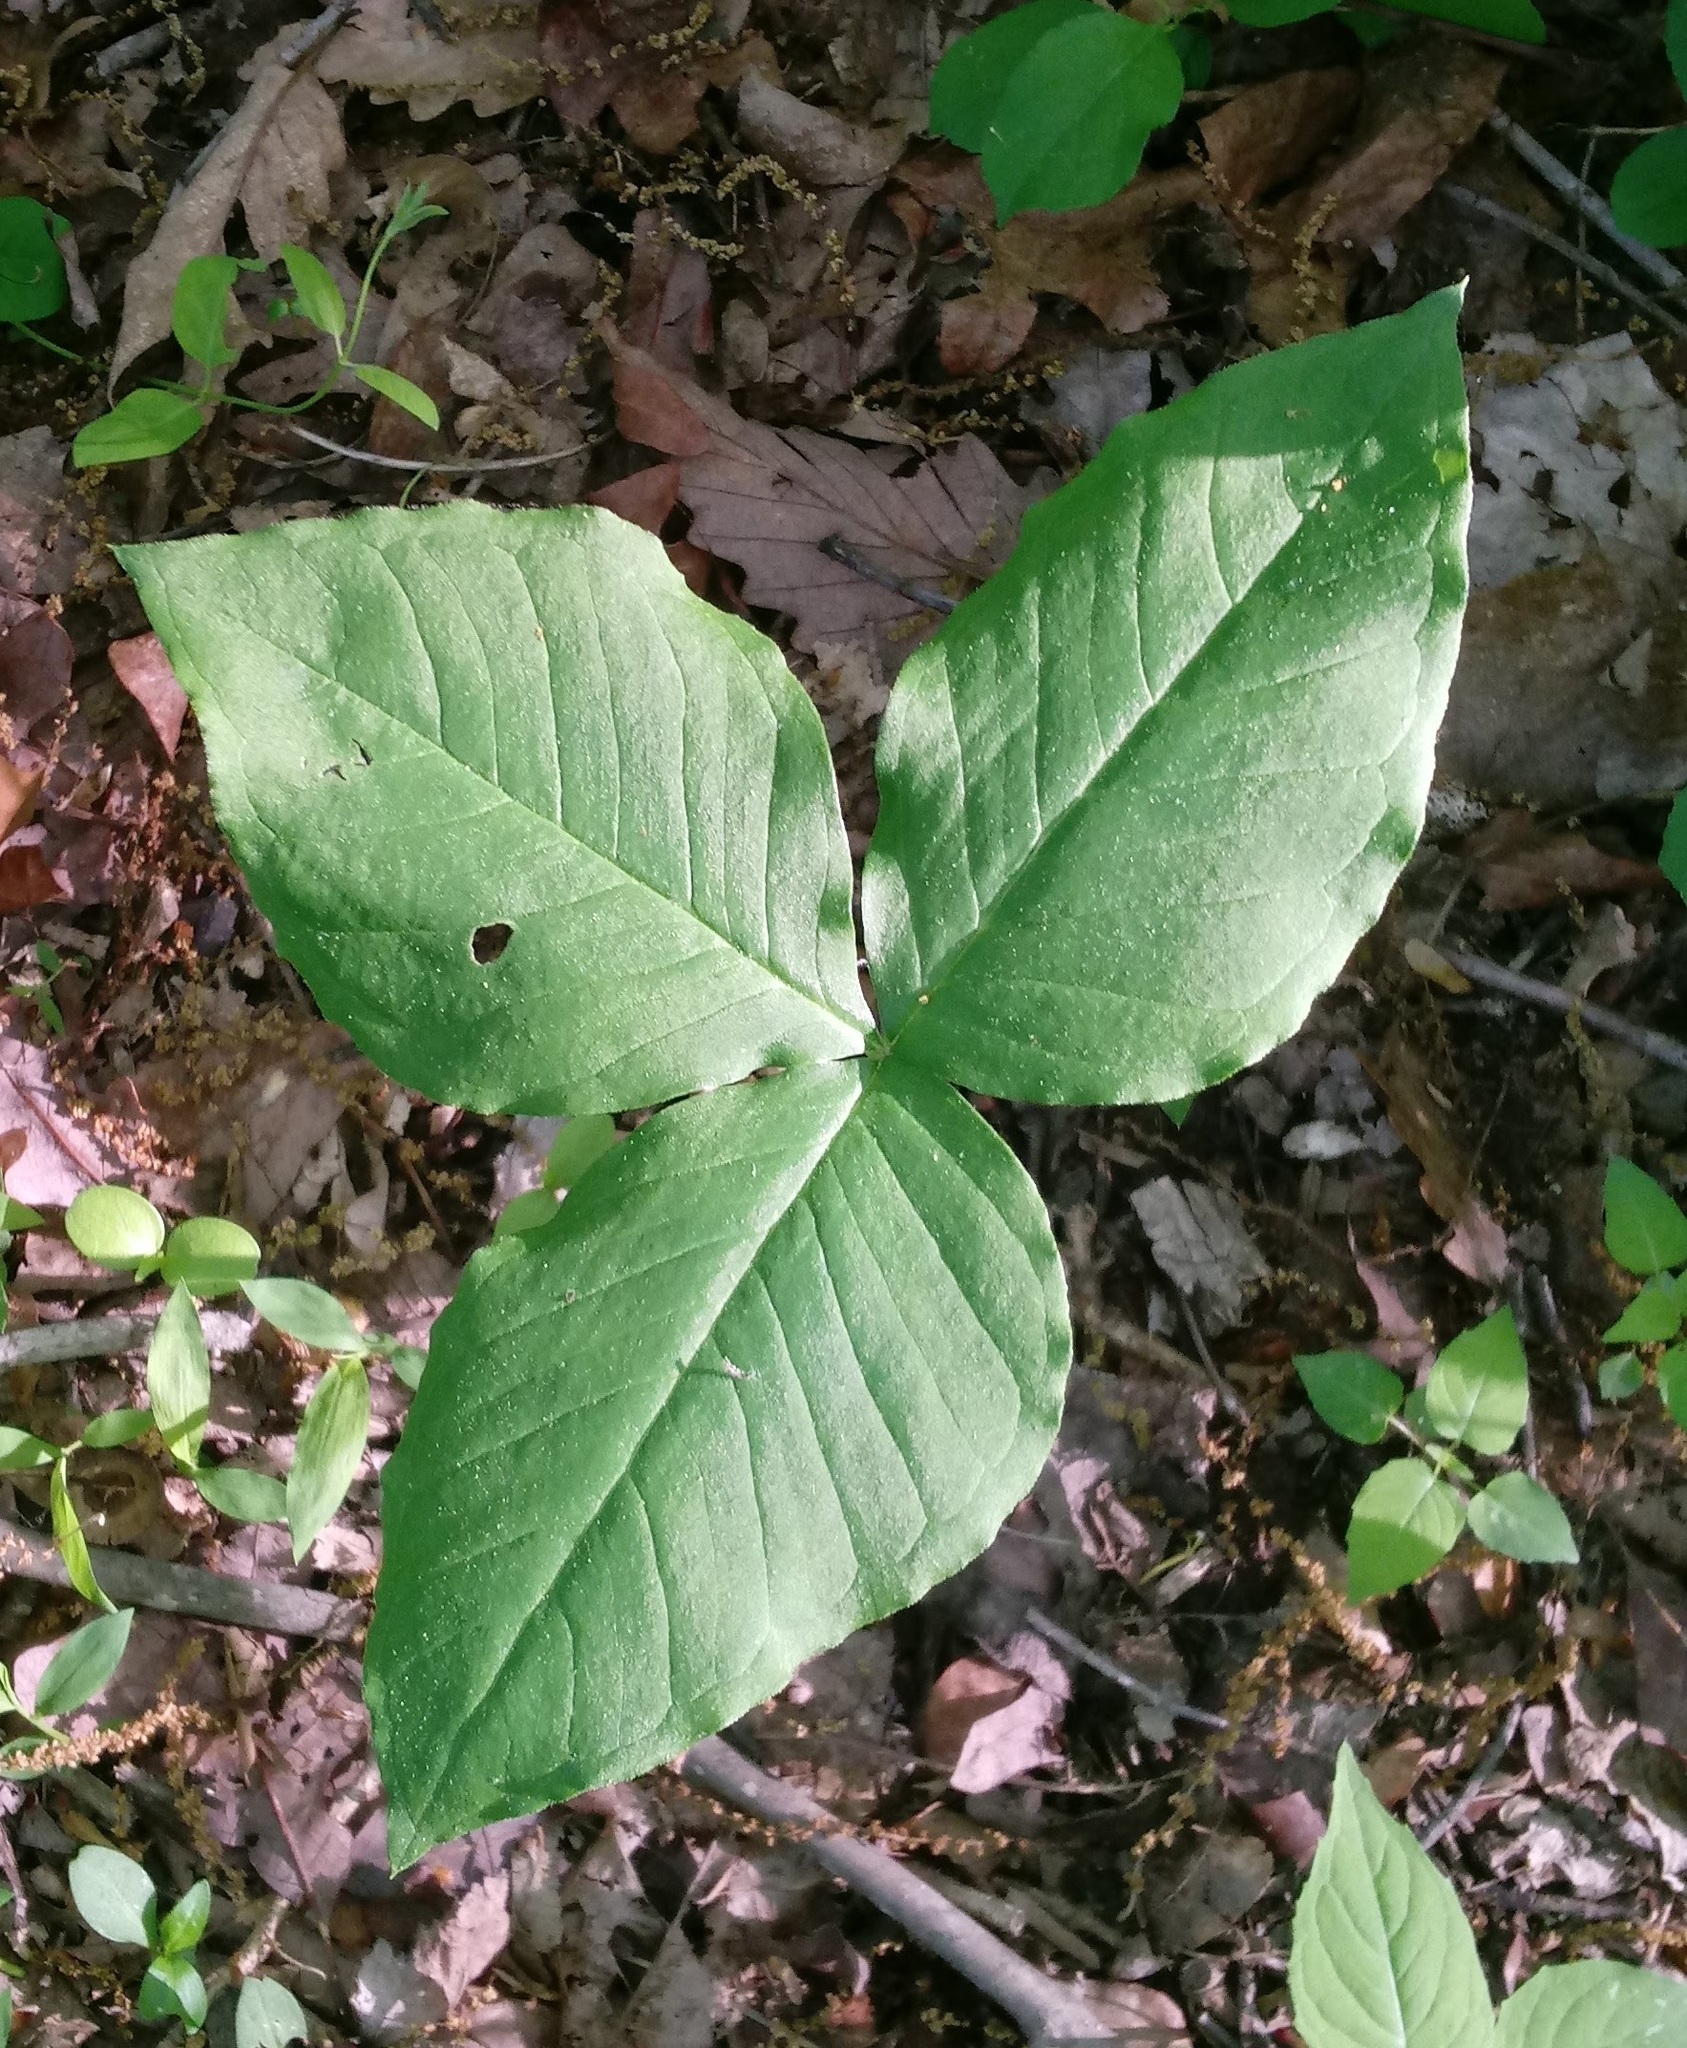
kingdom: Plantae
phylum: Tracheophyta
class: Liliopsida
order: Alismatales
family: Araceae
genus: Arisaema
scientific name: Arisaema triphyllum
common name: Jack-in-the-pulpit
